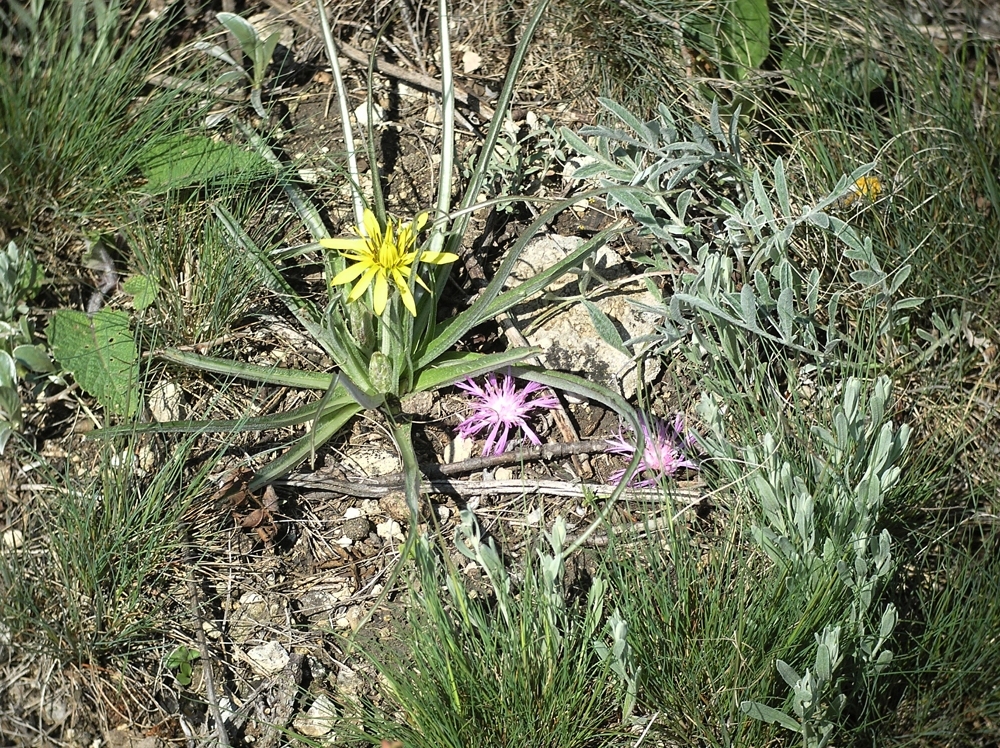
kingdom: Plantae
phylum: Tracheophyta
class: Magnoliopsida
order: Asterales
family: Asteraceae
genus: Candollea
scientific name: Candollea mollis
